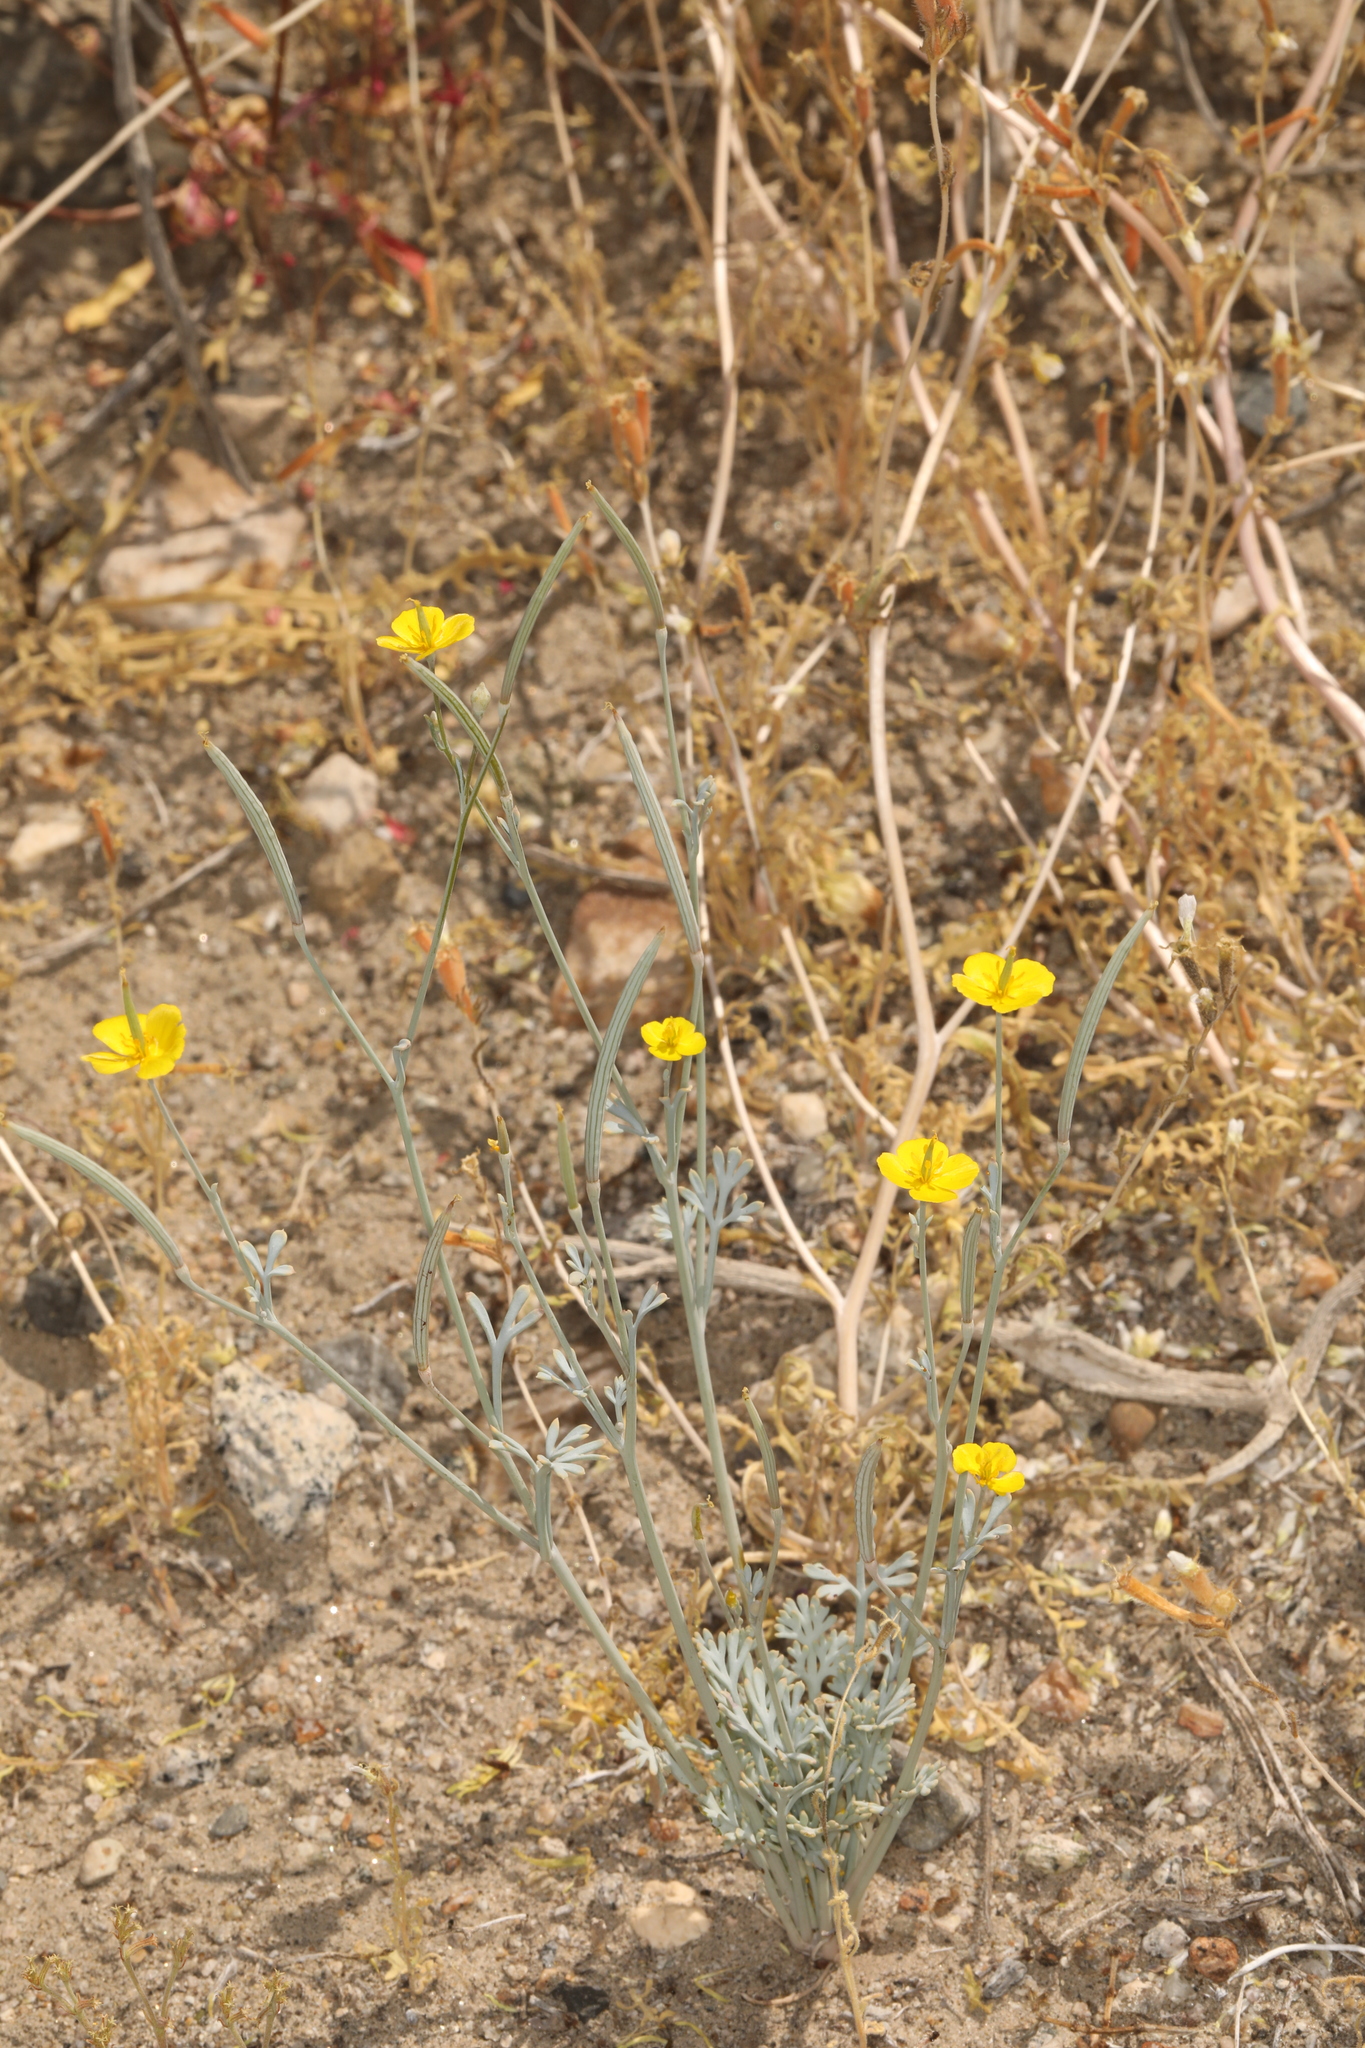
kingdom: Plantae
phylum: Tracheophyta
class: Magnoliopsida
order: Ranunculales
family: Papaveraceae
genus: Eschscholzia
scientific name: Eschscholzia minutiflora
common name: Small-flower california-poppy
